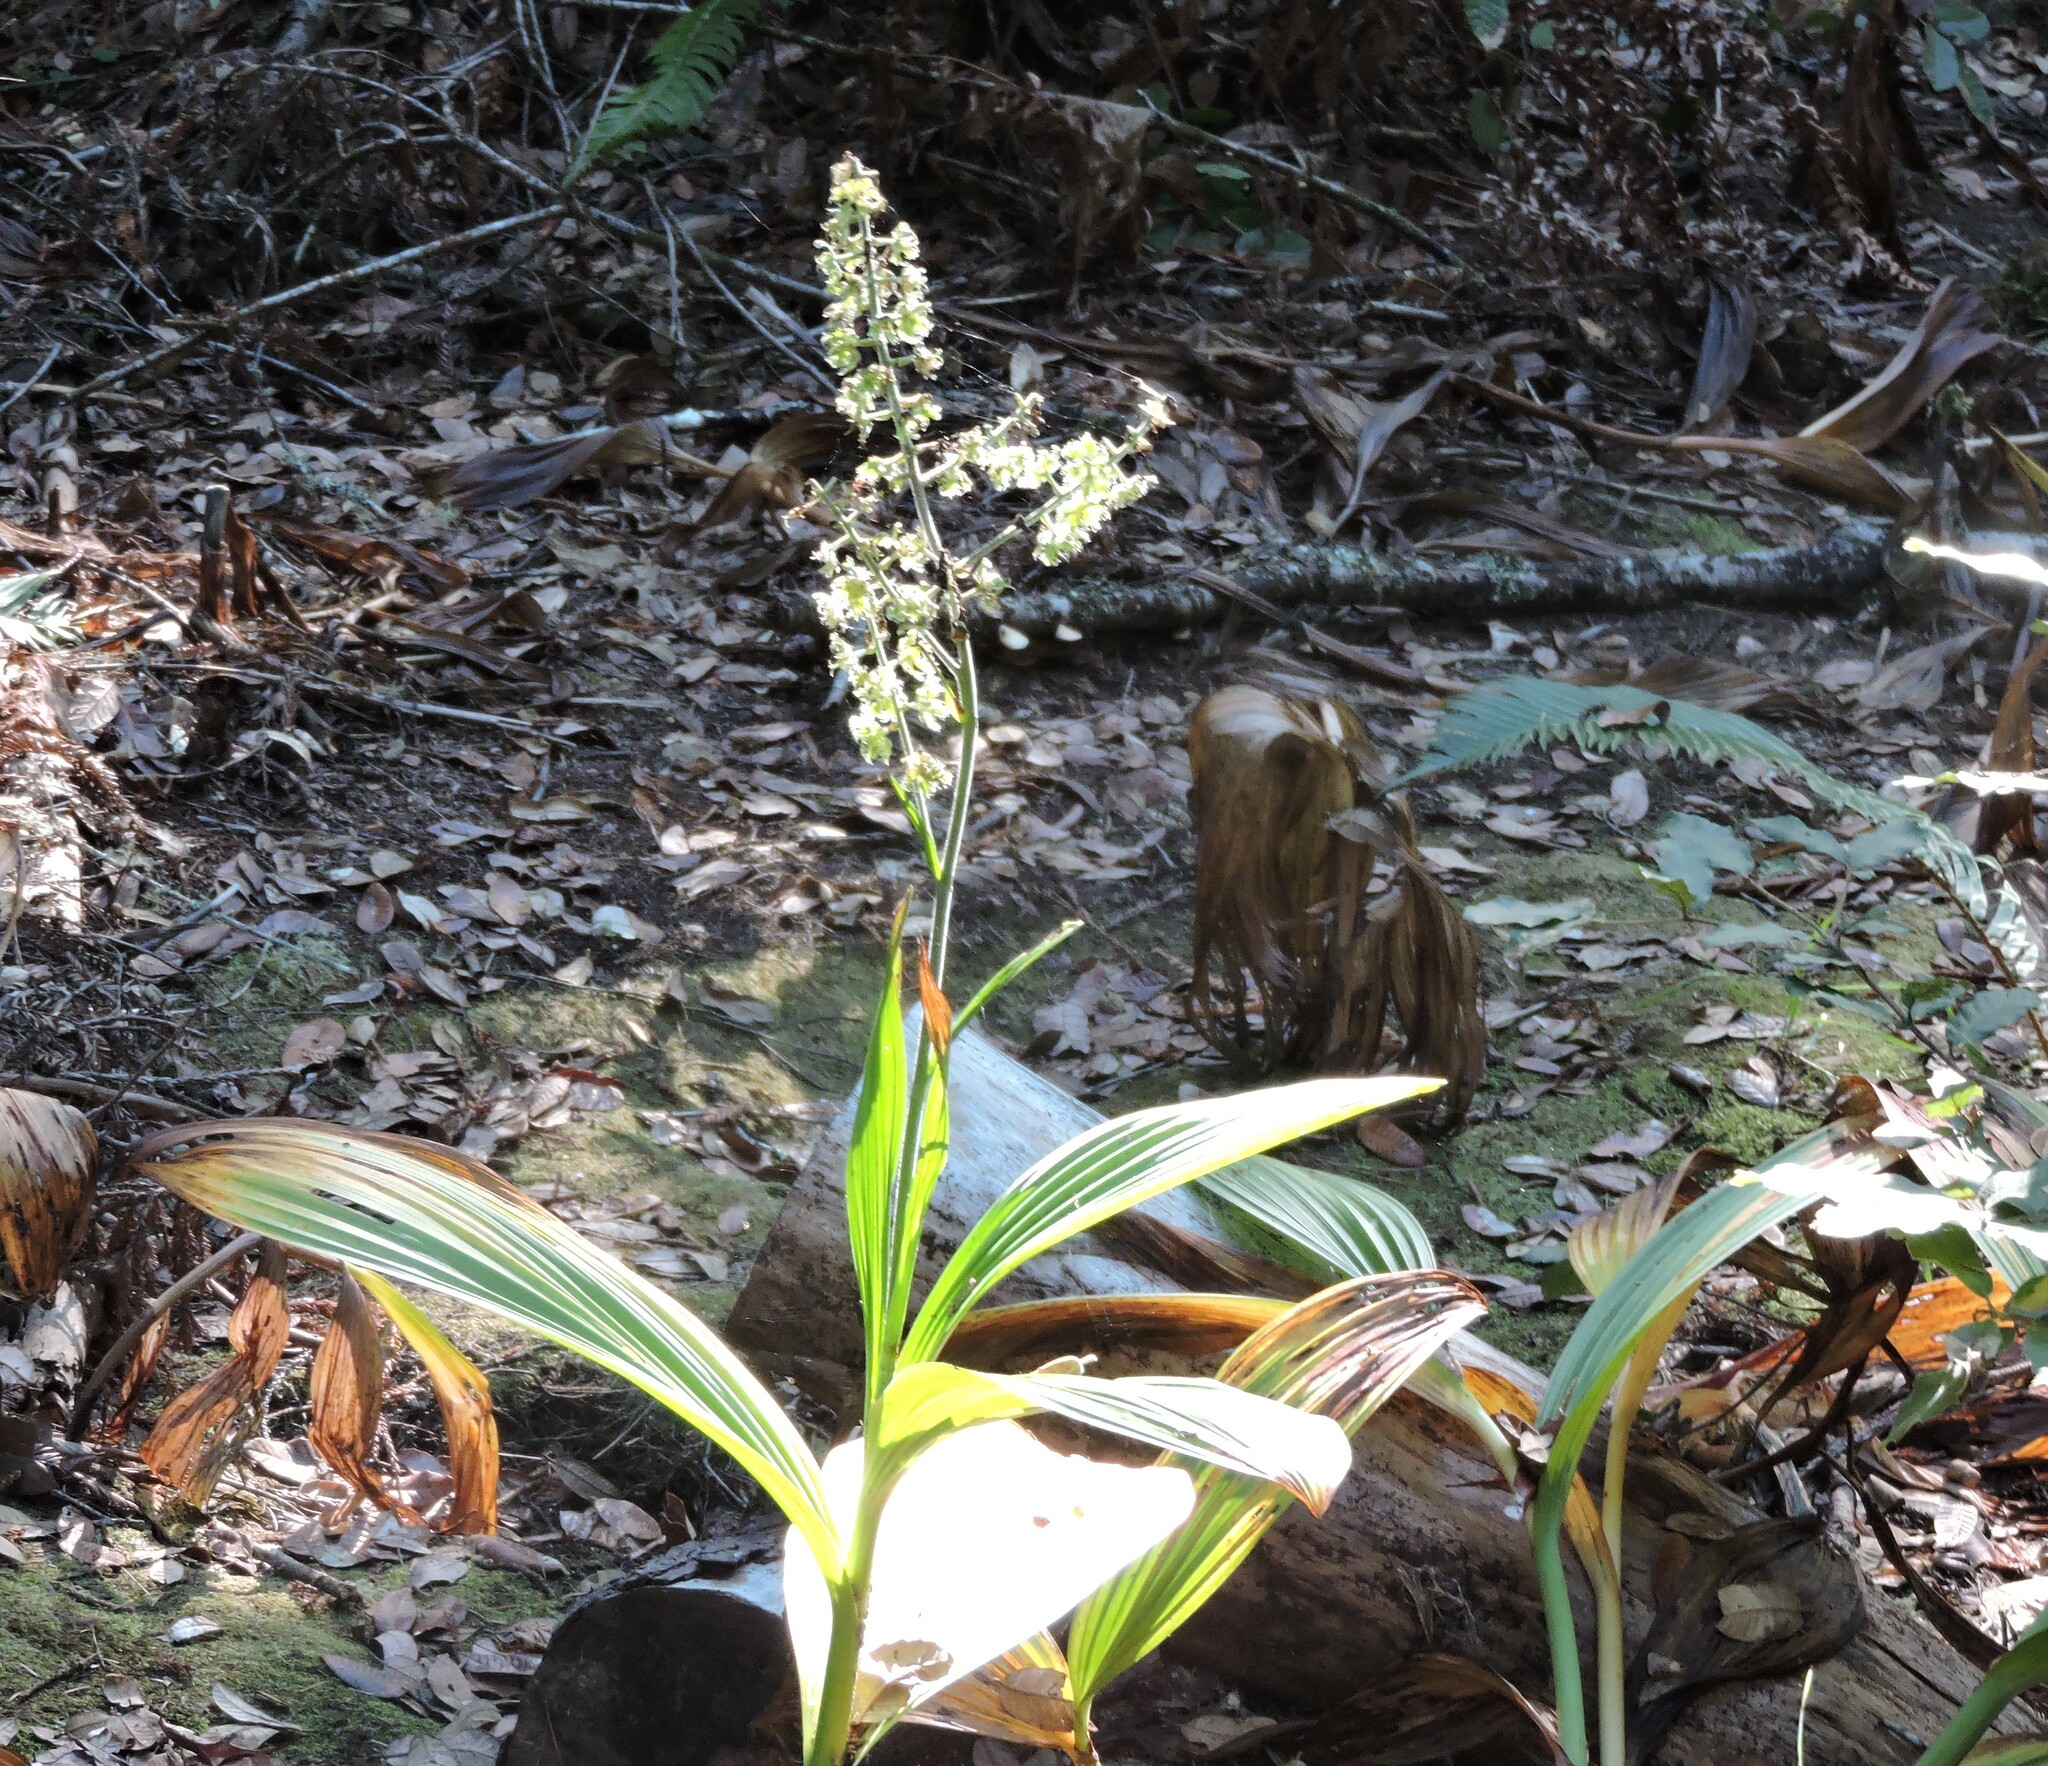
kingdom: Plantae
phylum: Tracheophyta
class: Liliopsida
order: Liliales
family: Melanthiaceae
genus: Veratrum
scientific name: Veratrum fimbriatum
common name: Fringe false hellobore
